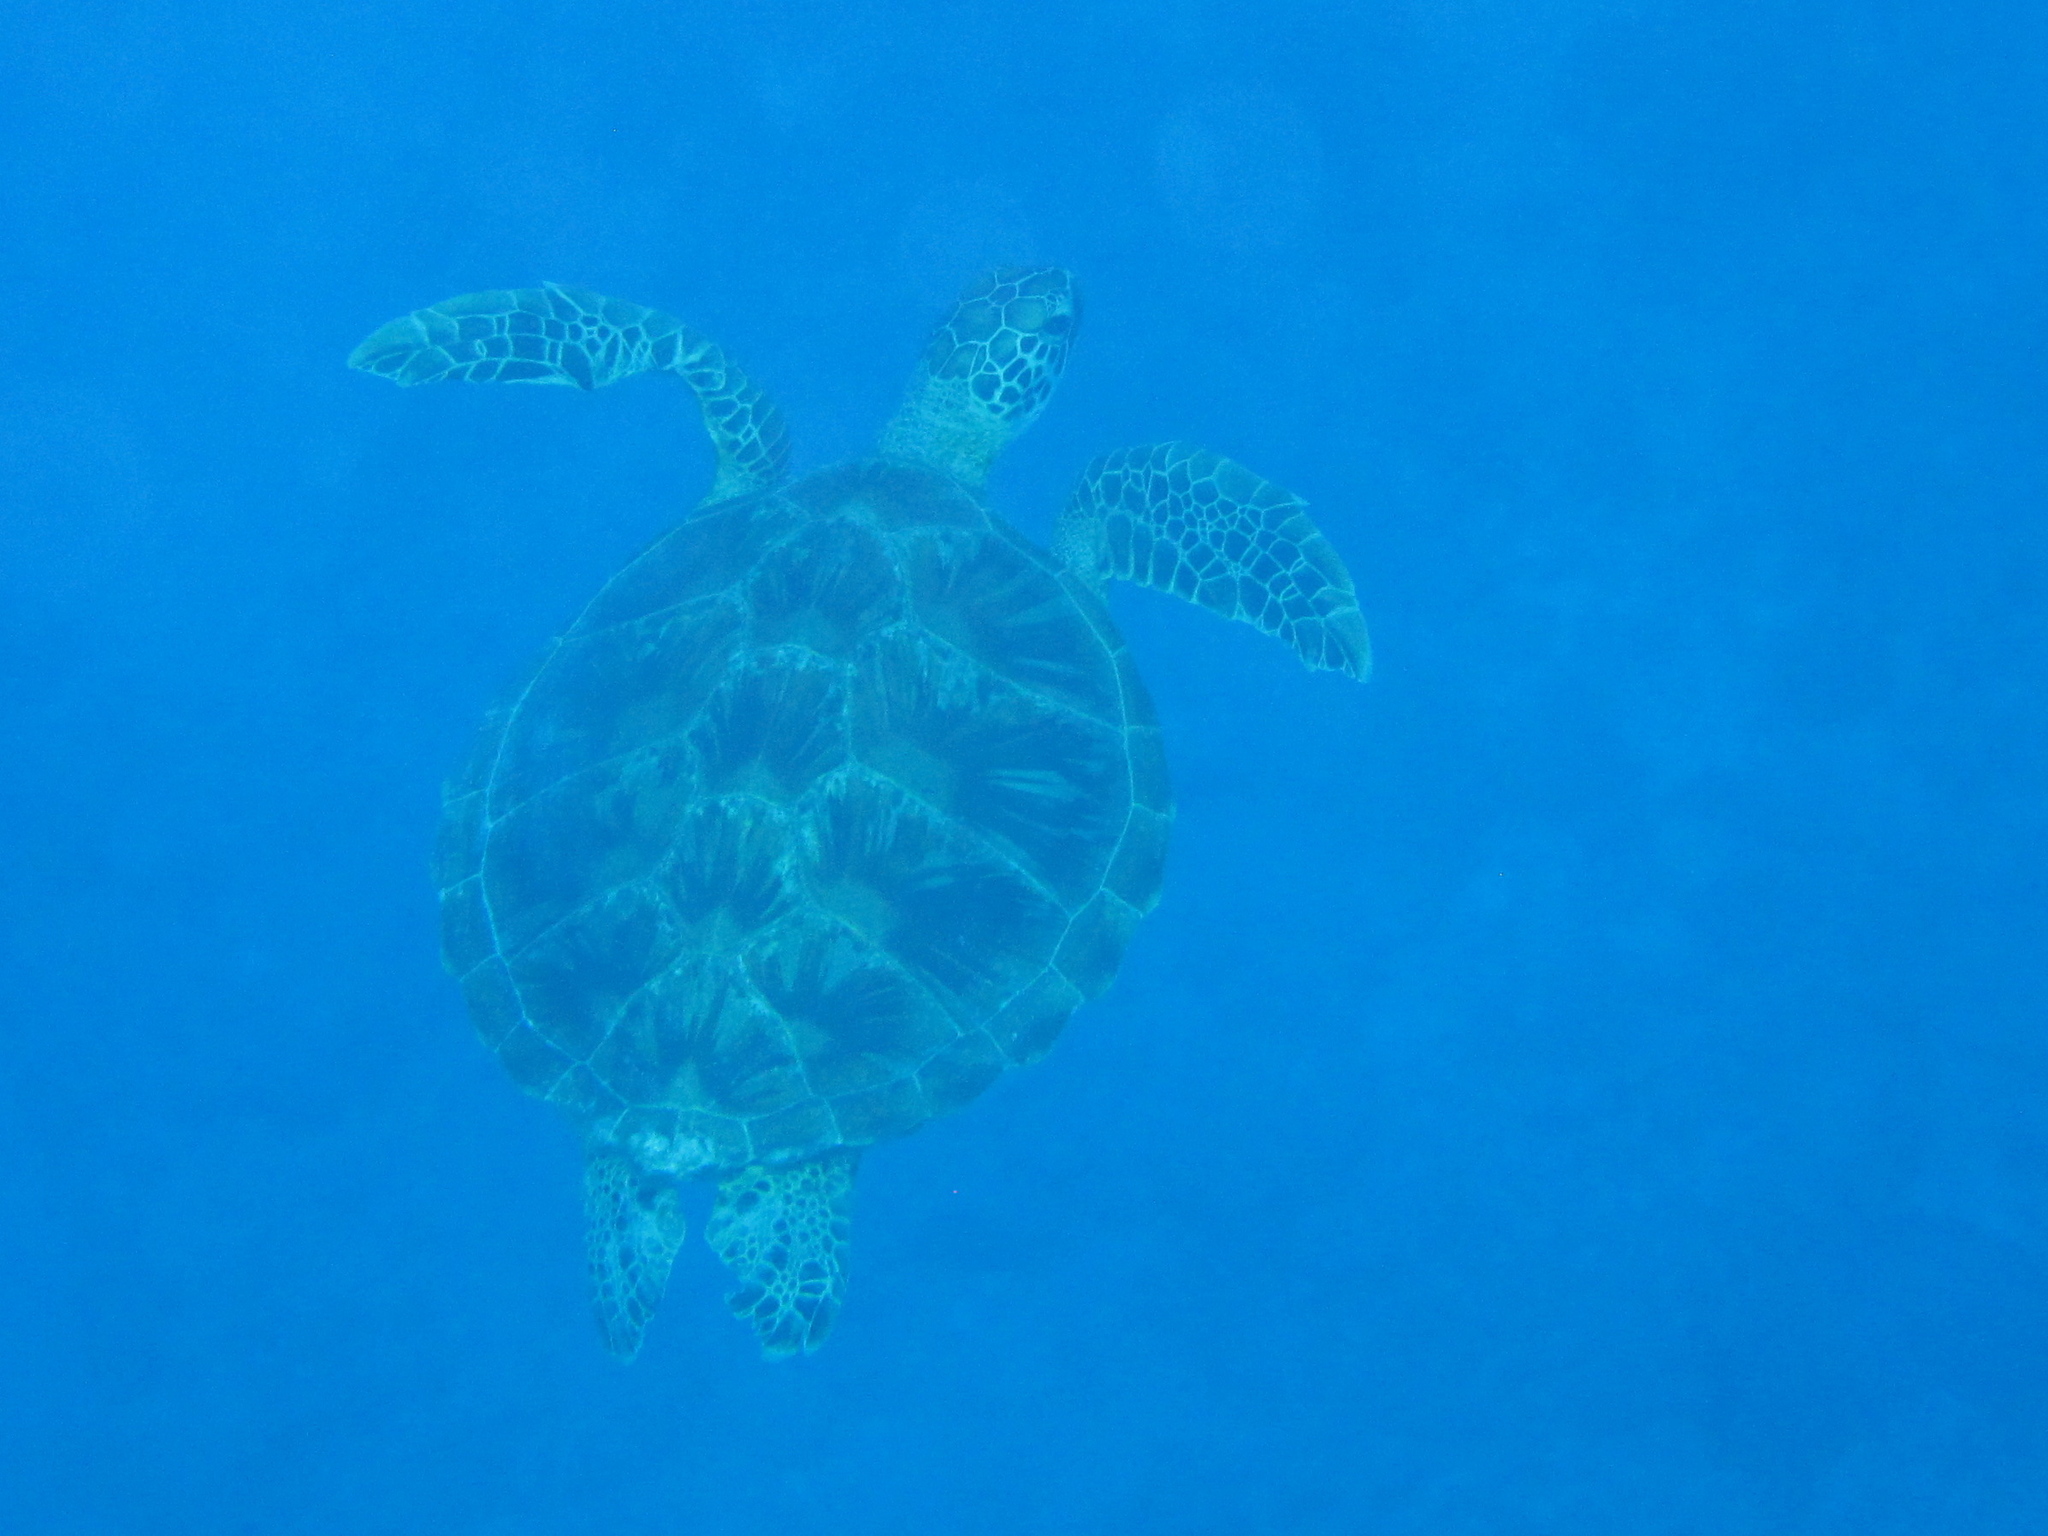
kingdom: Animalia
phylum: Chordata
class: Testudines
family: Cheloniidae
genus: Chelonia
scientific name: Chelonia mydas
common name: Green turtle
